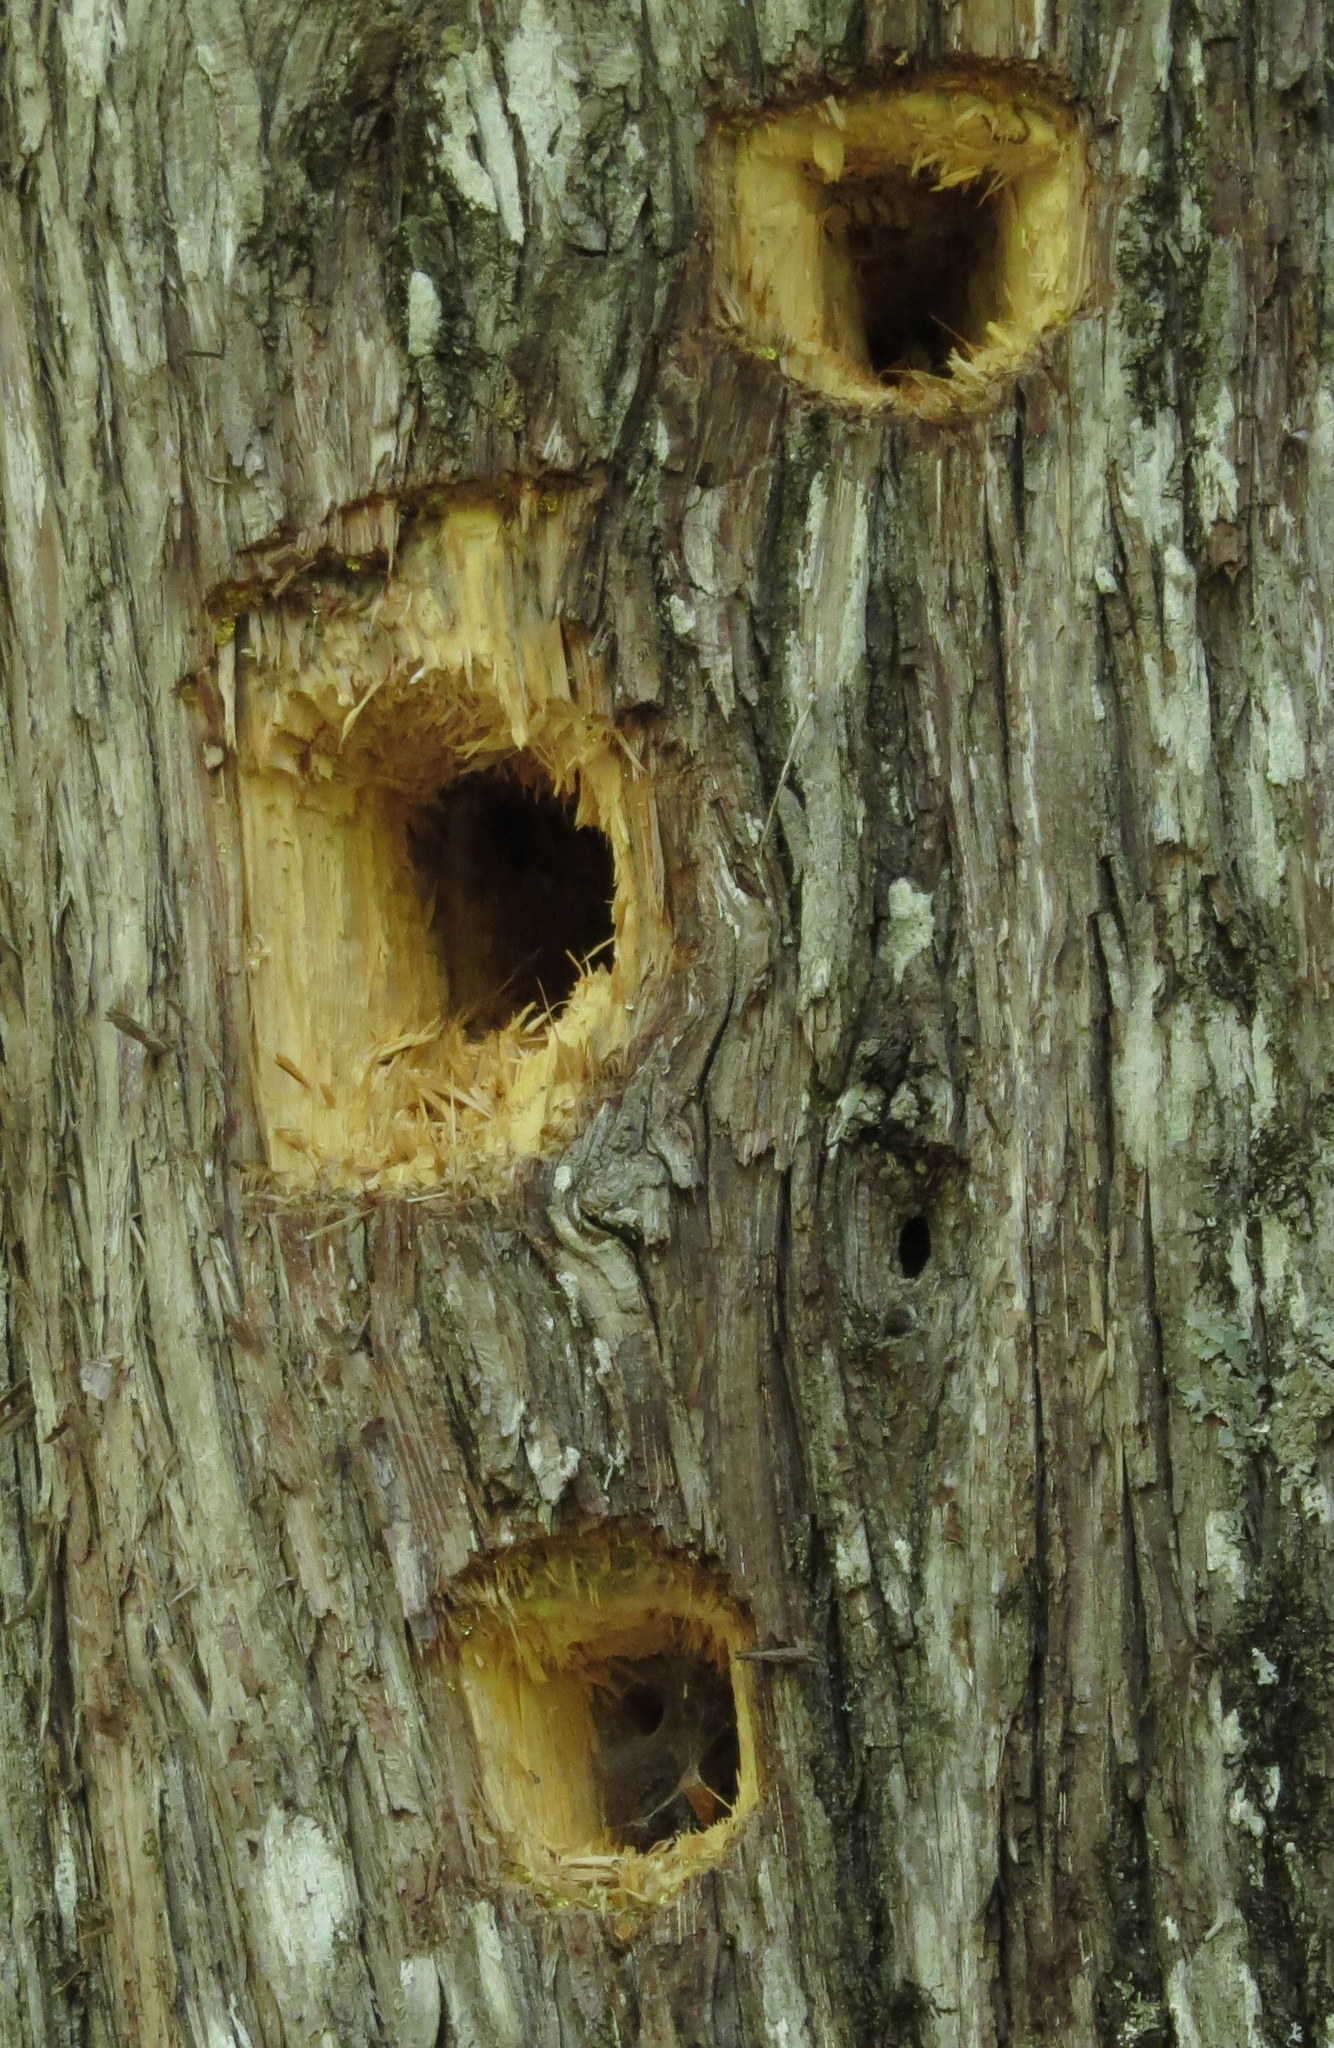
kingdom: Animalia
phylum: Chordata
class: Aves
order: Piciformes
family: Picidae
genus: Dryocopus
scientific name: Dryocopus pileatus
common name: Pileated woodpecker
